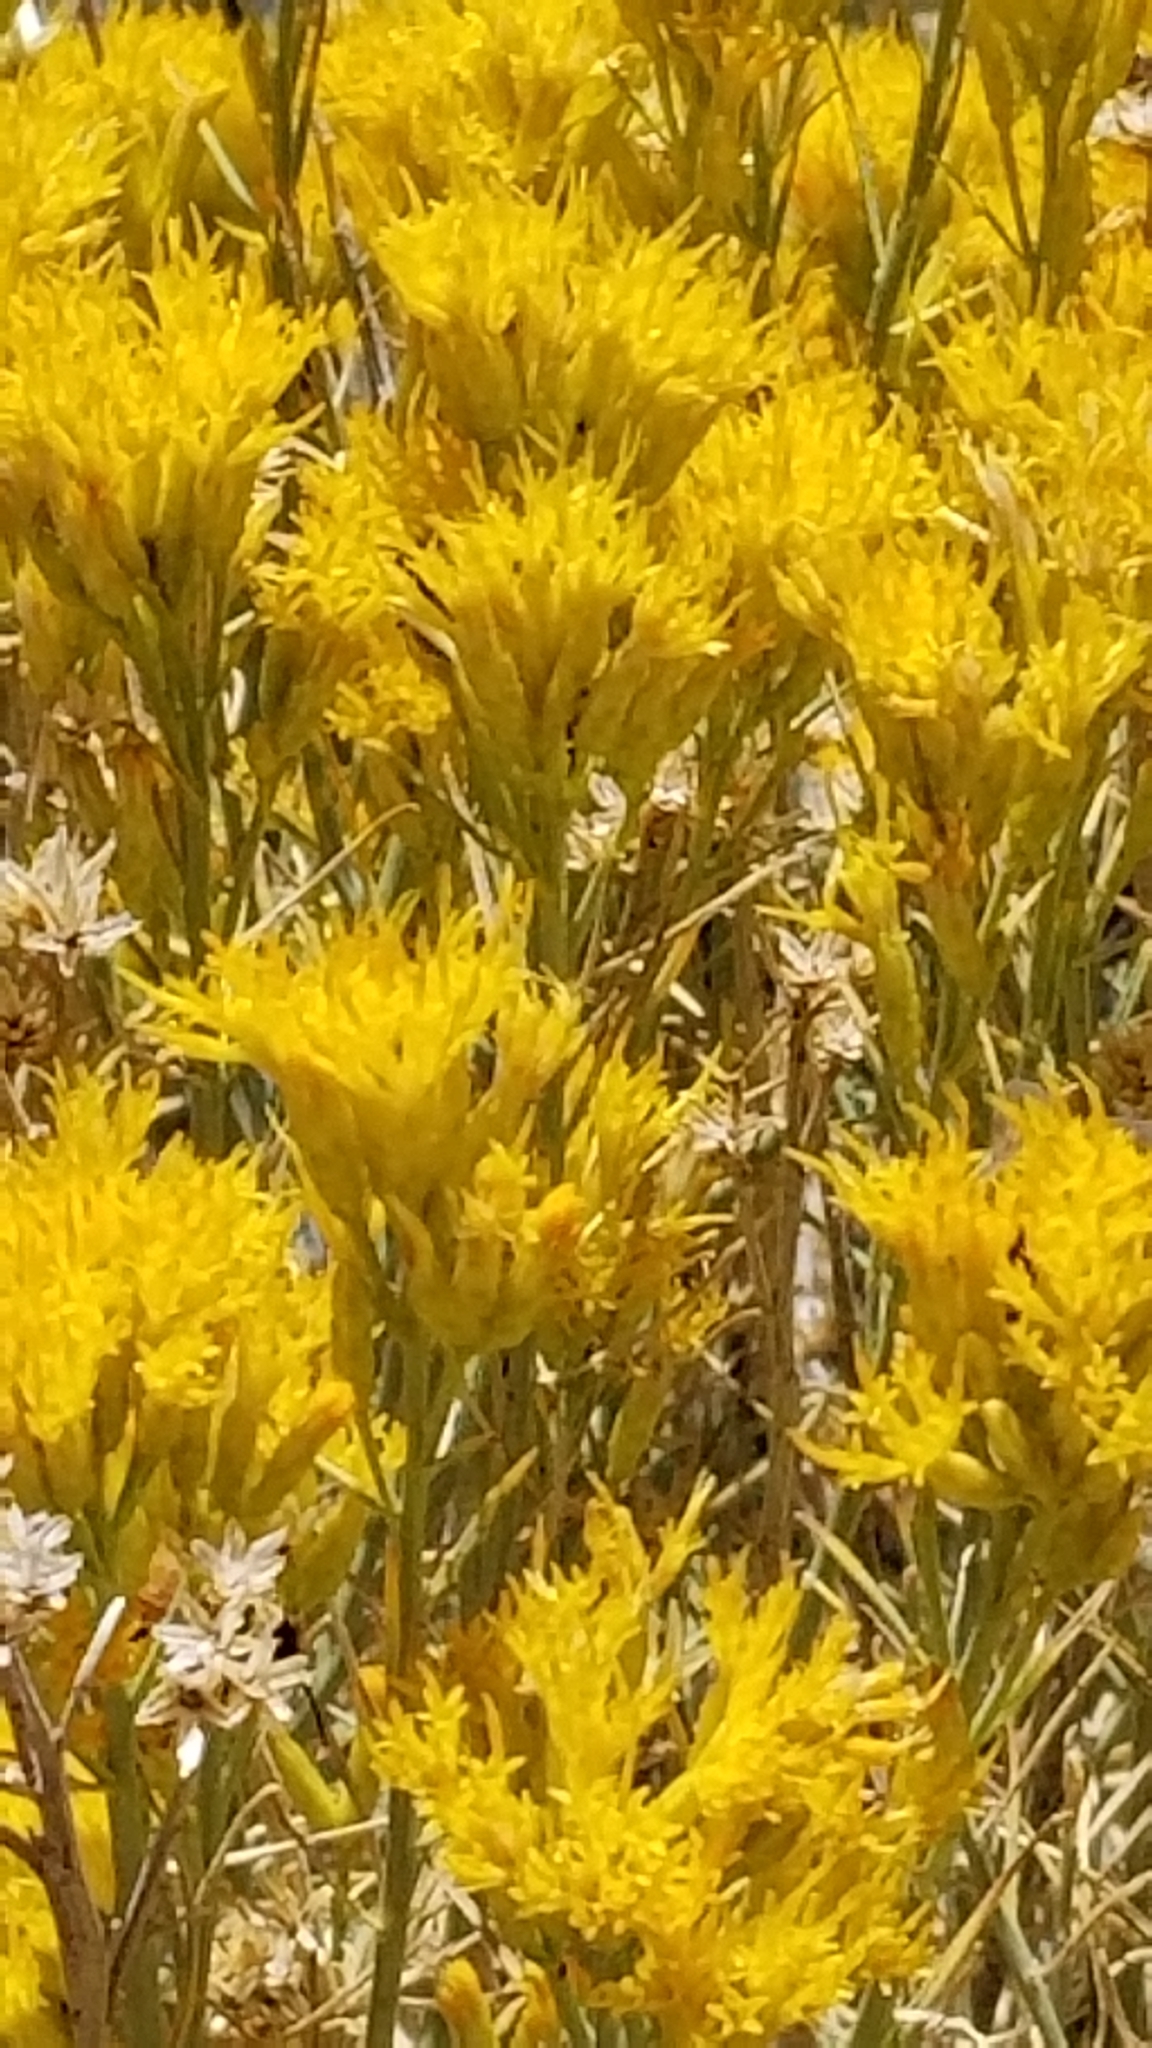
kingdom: Plantae
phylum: Tracheophyta
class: Magnoliopsida
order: Asterales
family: Asteraceae
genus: Ericameria
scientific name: Ericameria nauseosa
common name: Rubber rabbitbrush
